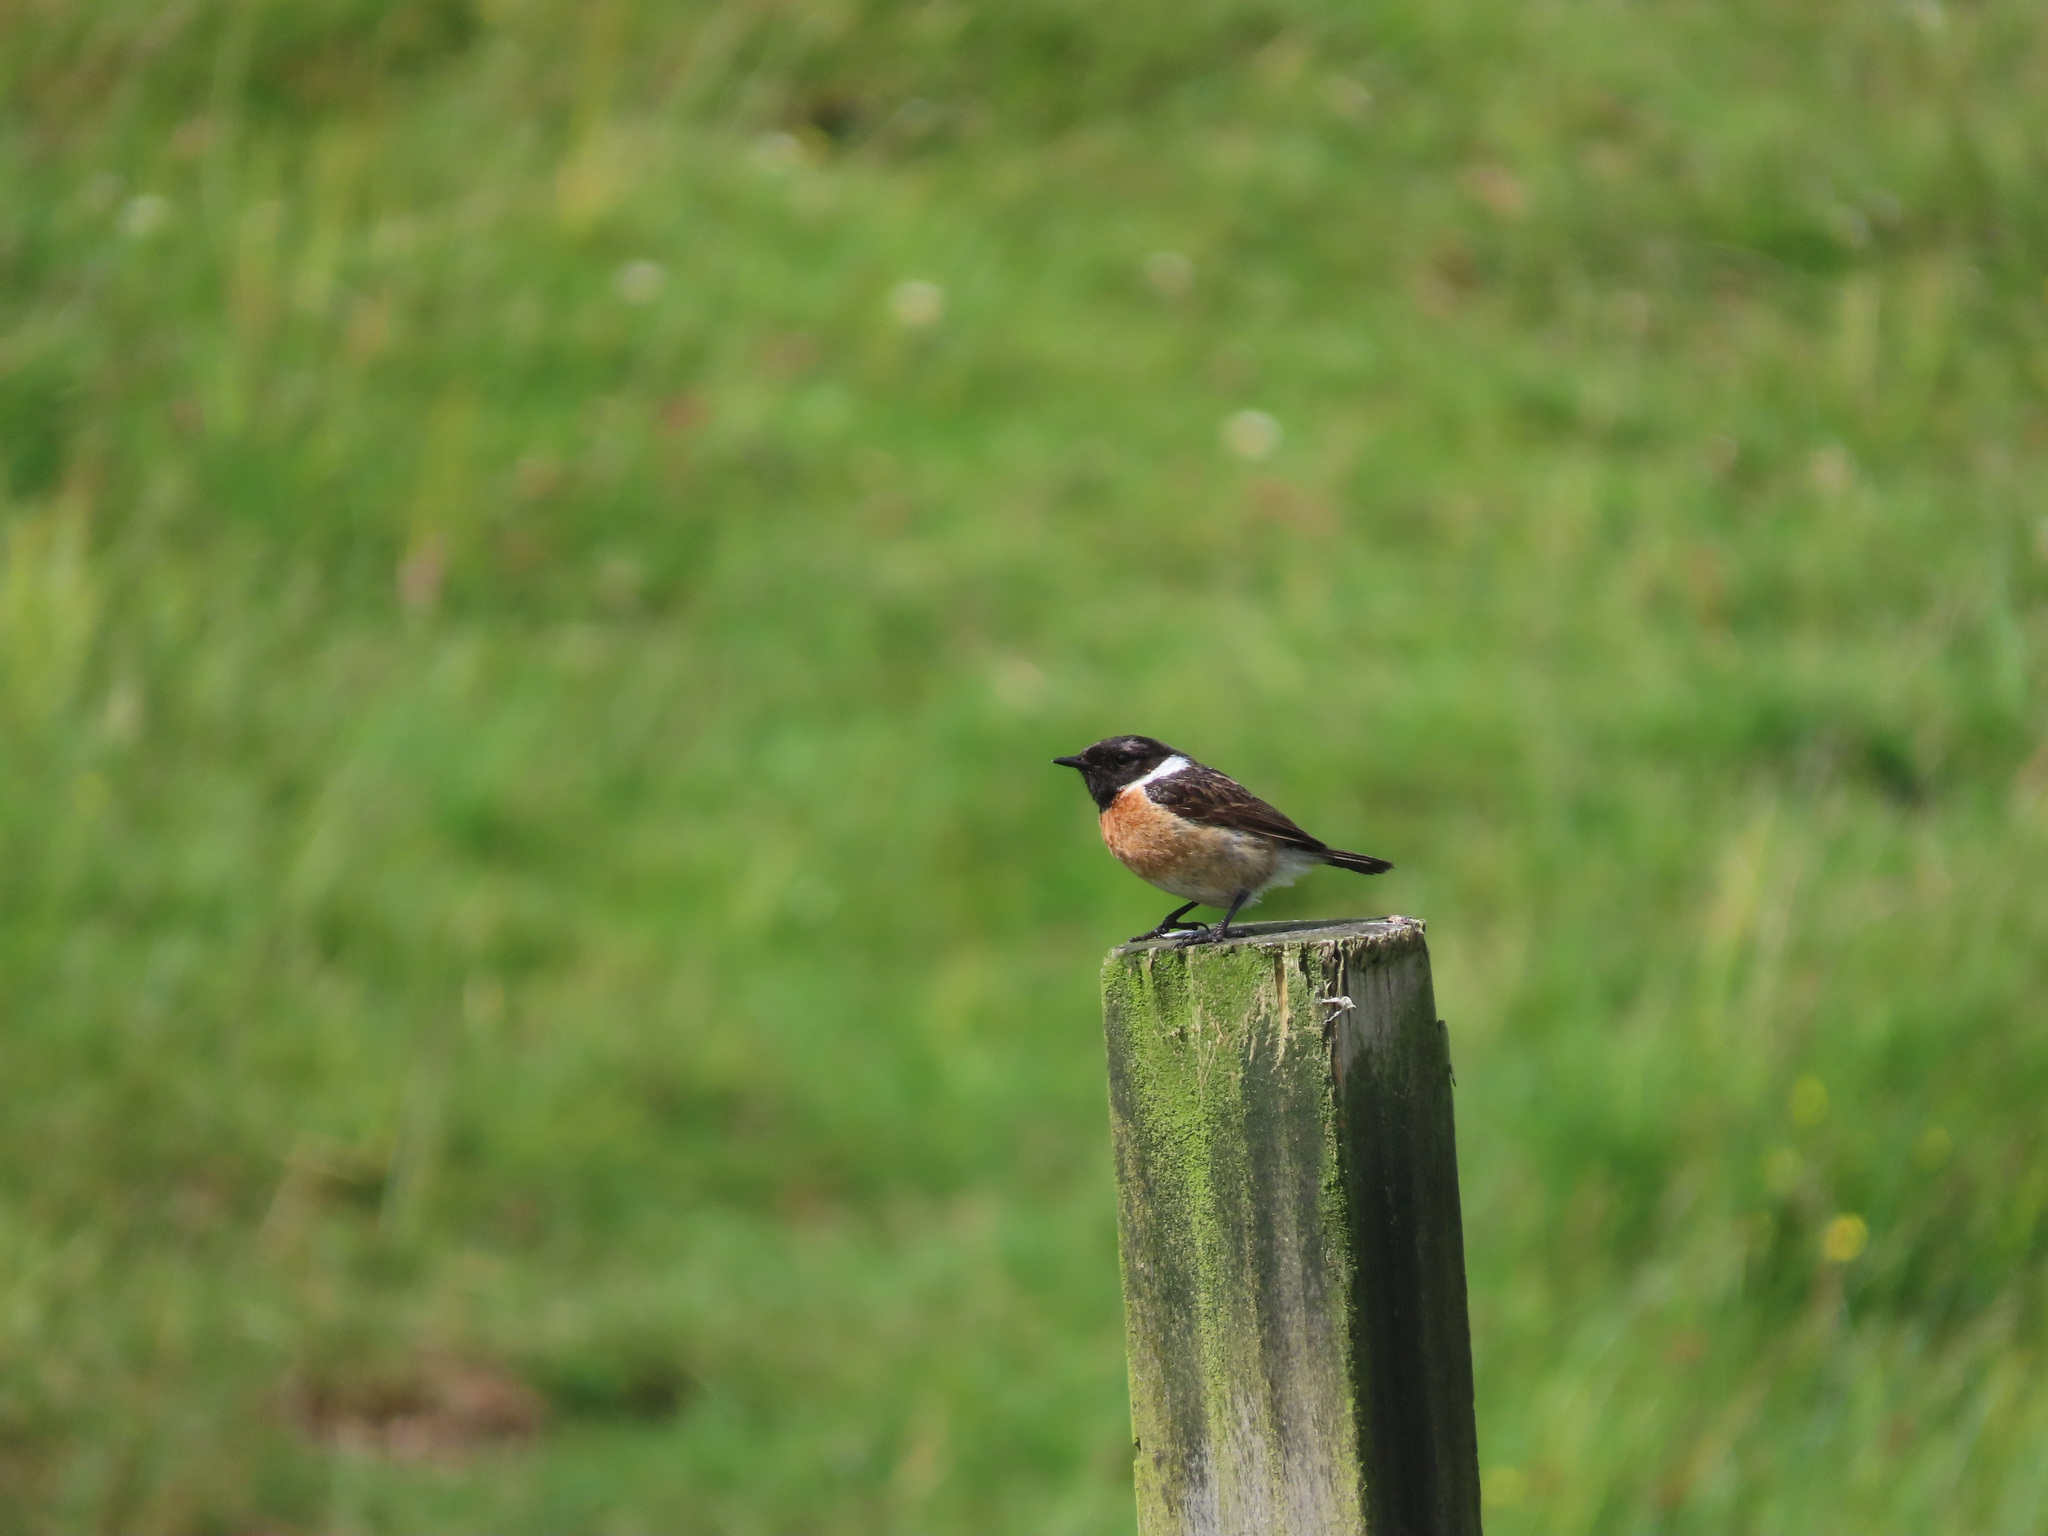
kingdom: Animalia
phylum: Chordata
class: Aves
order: Passeriformes
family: Muscicapidae
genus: Saxicola
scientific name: Saxicola rubicola
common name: European stonechat
